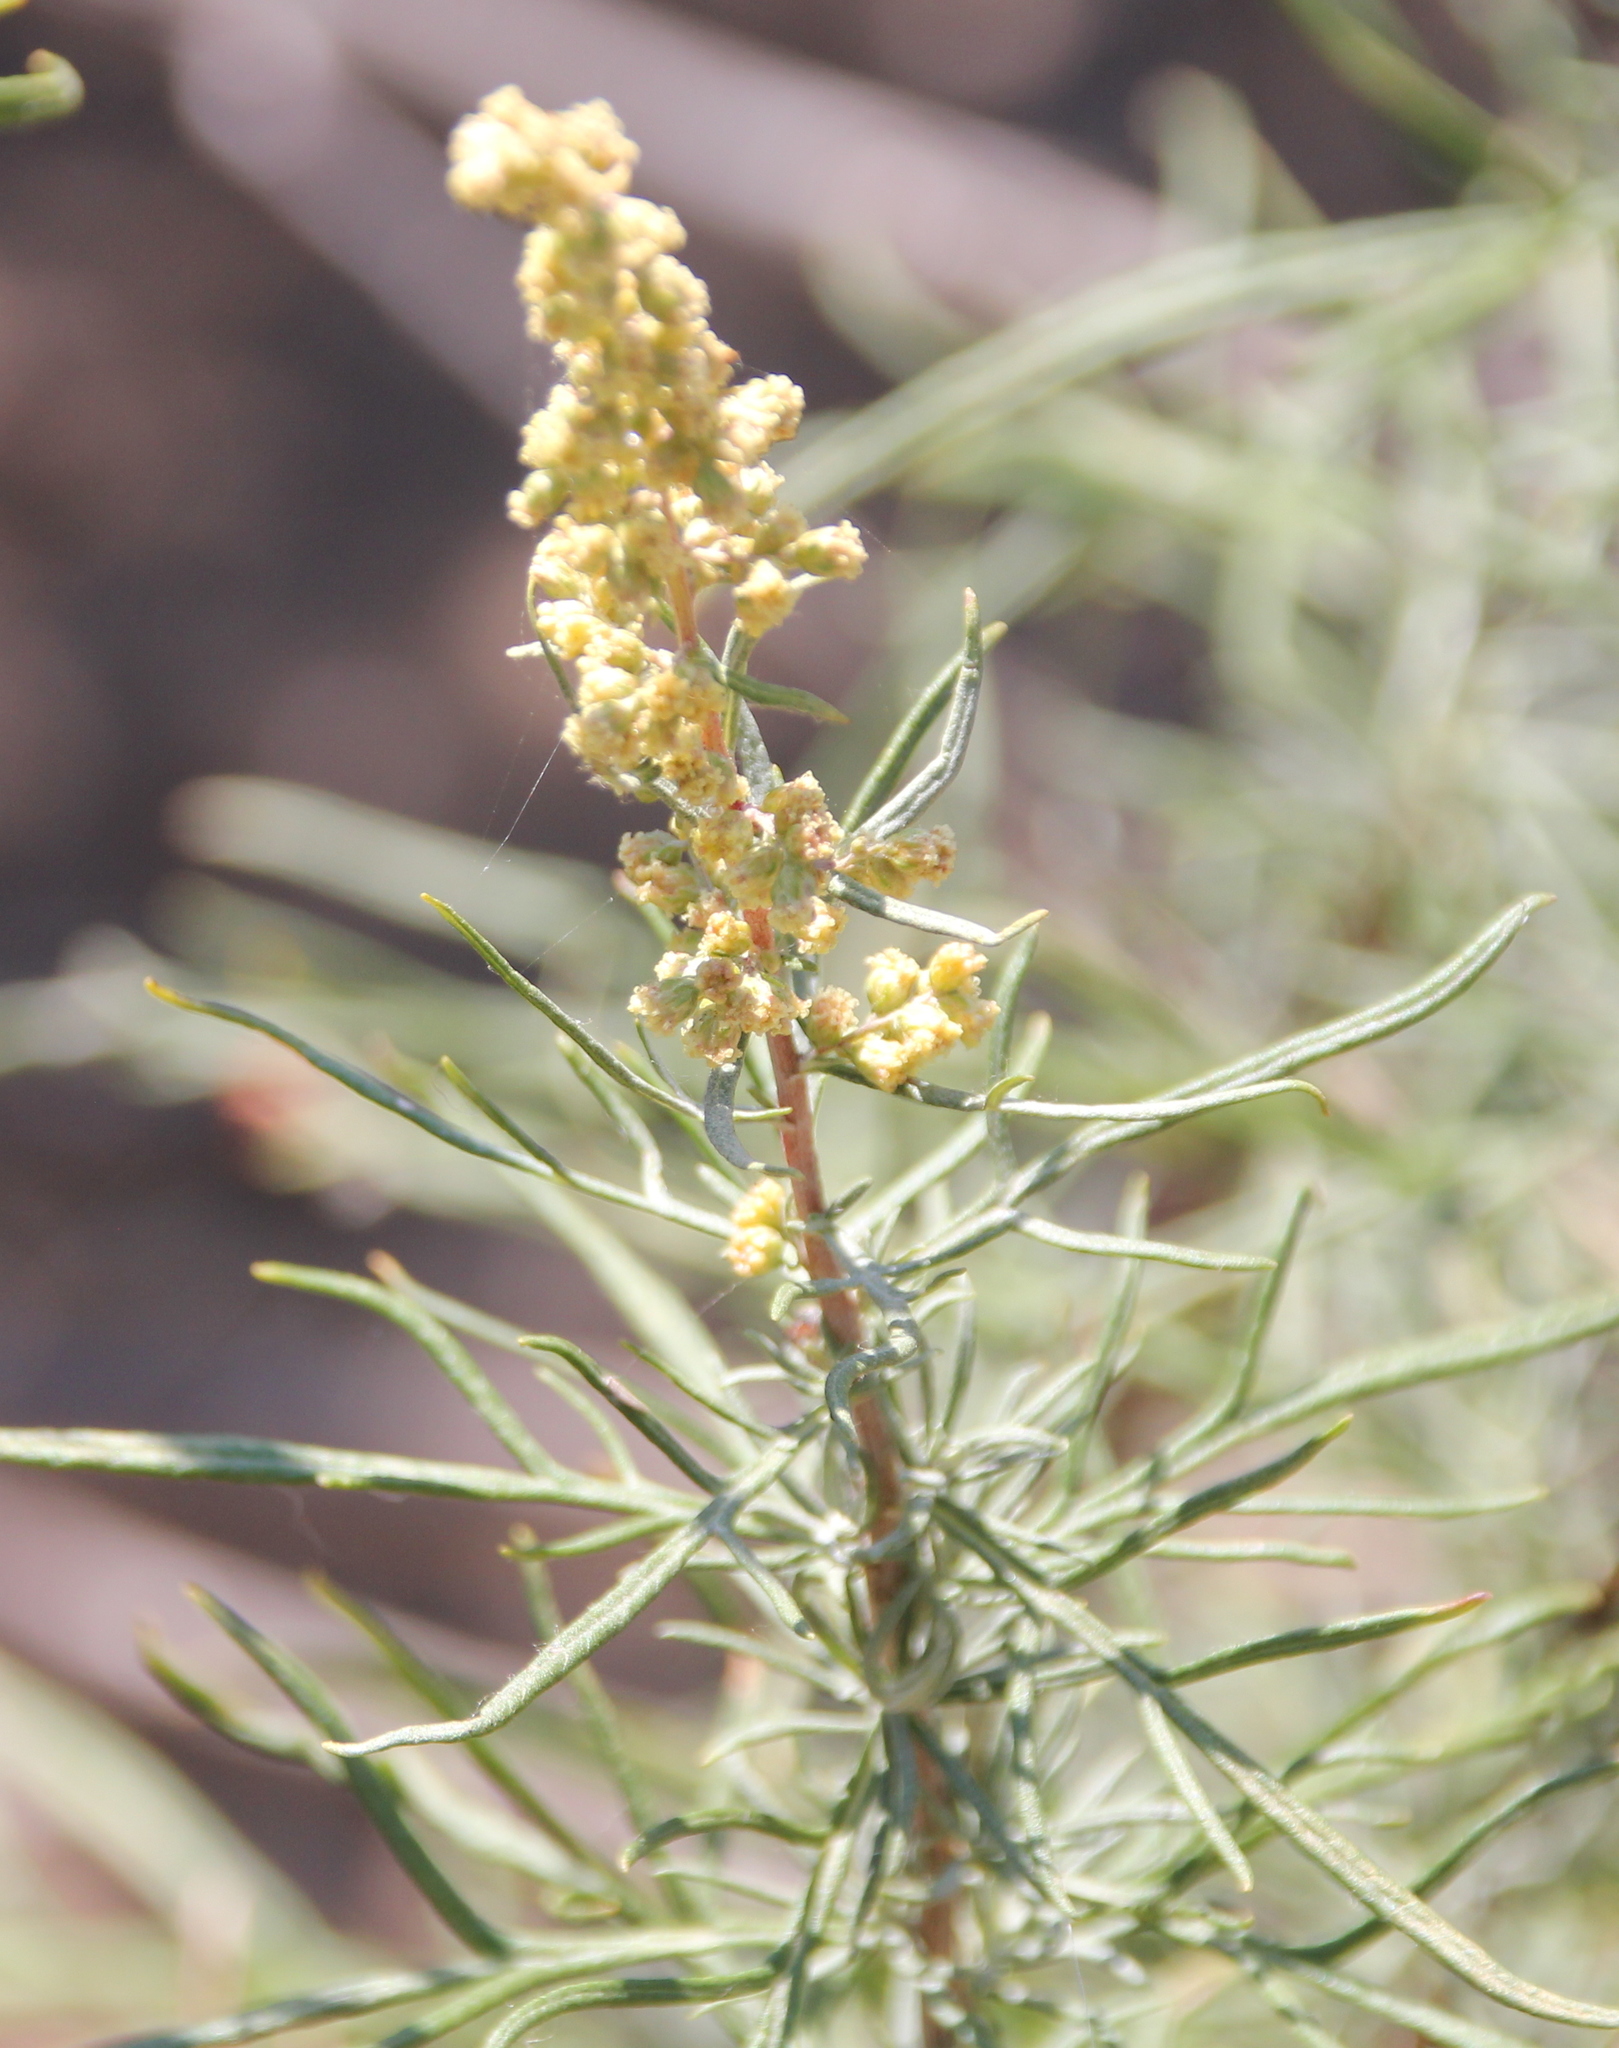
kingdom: Plantae
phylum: Tracheophyta
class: Magnoliopsida
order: Asterales
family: Asteraceae
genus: Artemisia
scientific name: Artemisia palmeri
